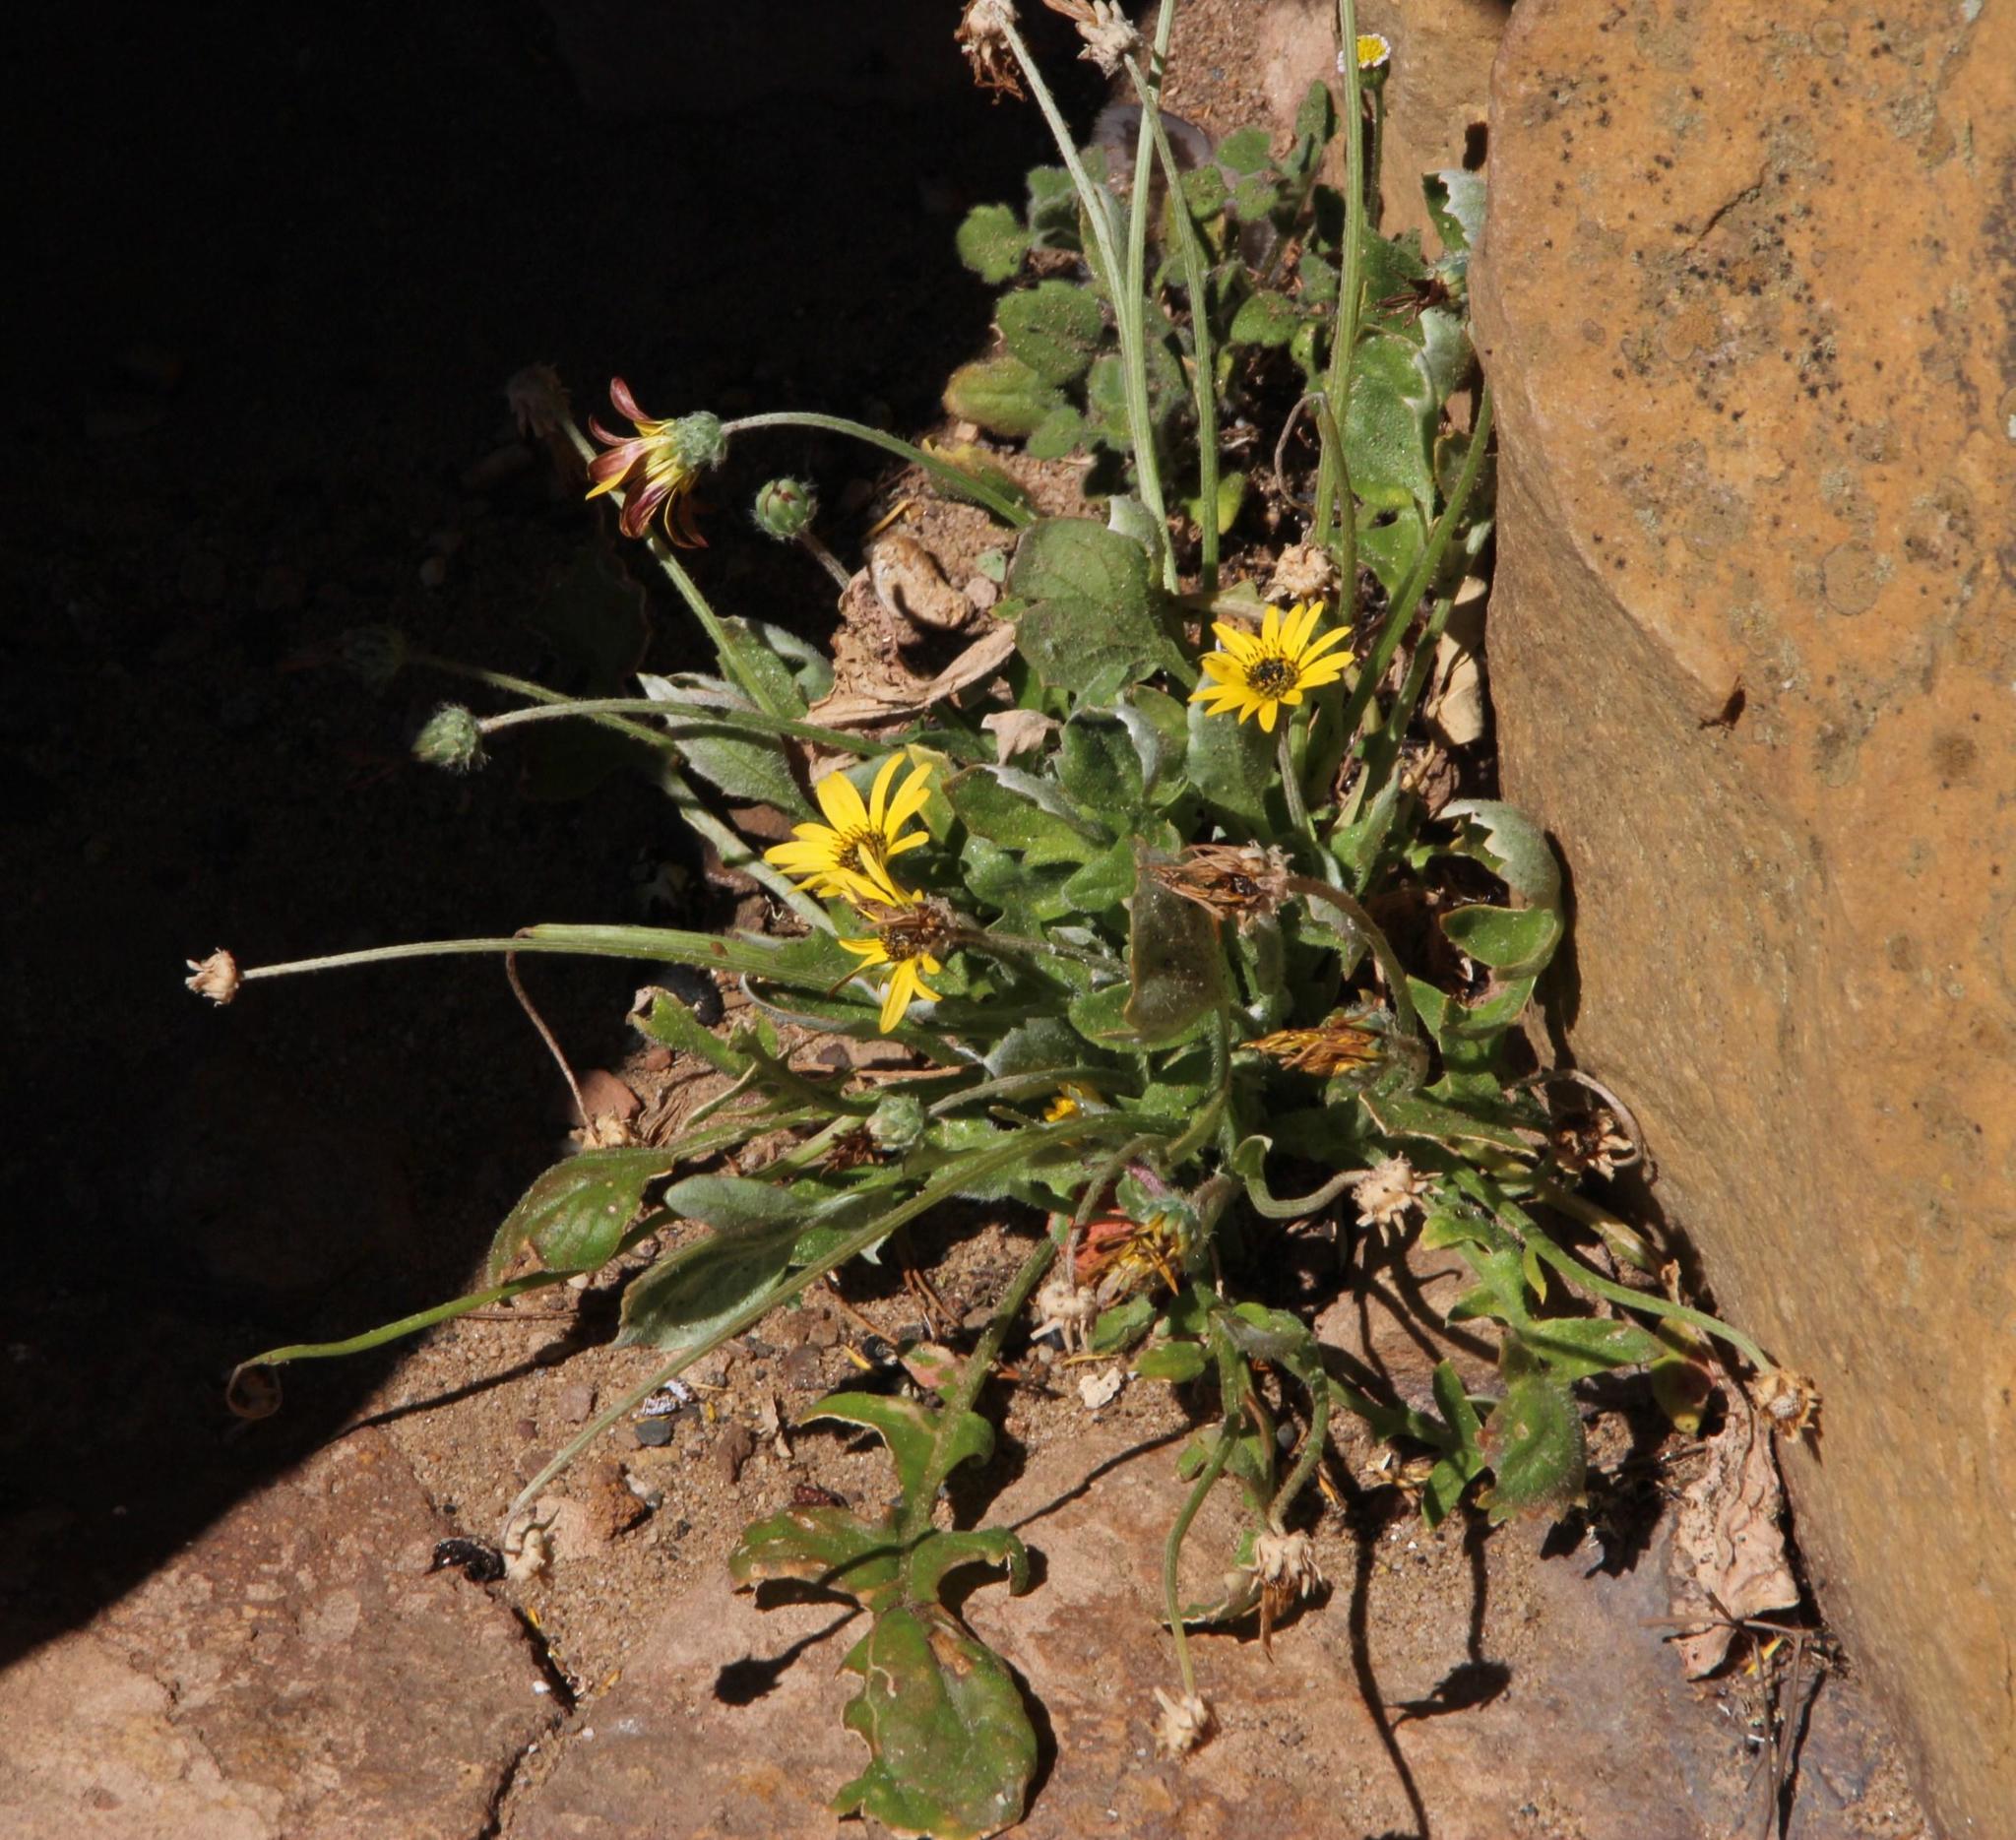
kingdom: Plantae
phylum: Tracheophyta
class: Magnoliopsida
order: Asterales
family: Asteraceae
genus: Arctotheca
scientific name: Arctotheca calendula
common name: Capeweed
